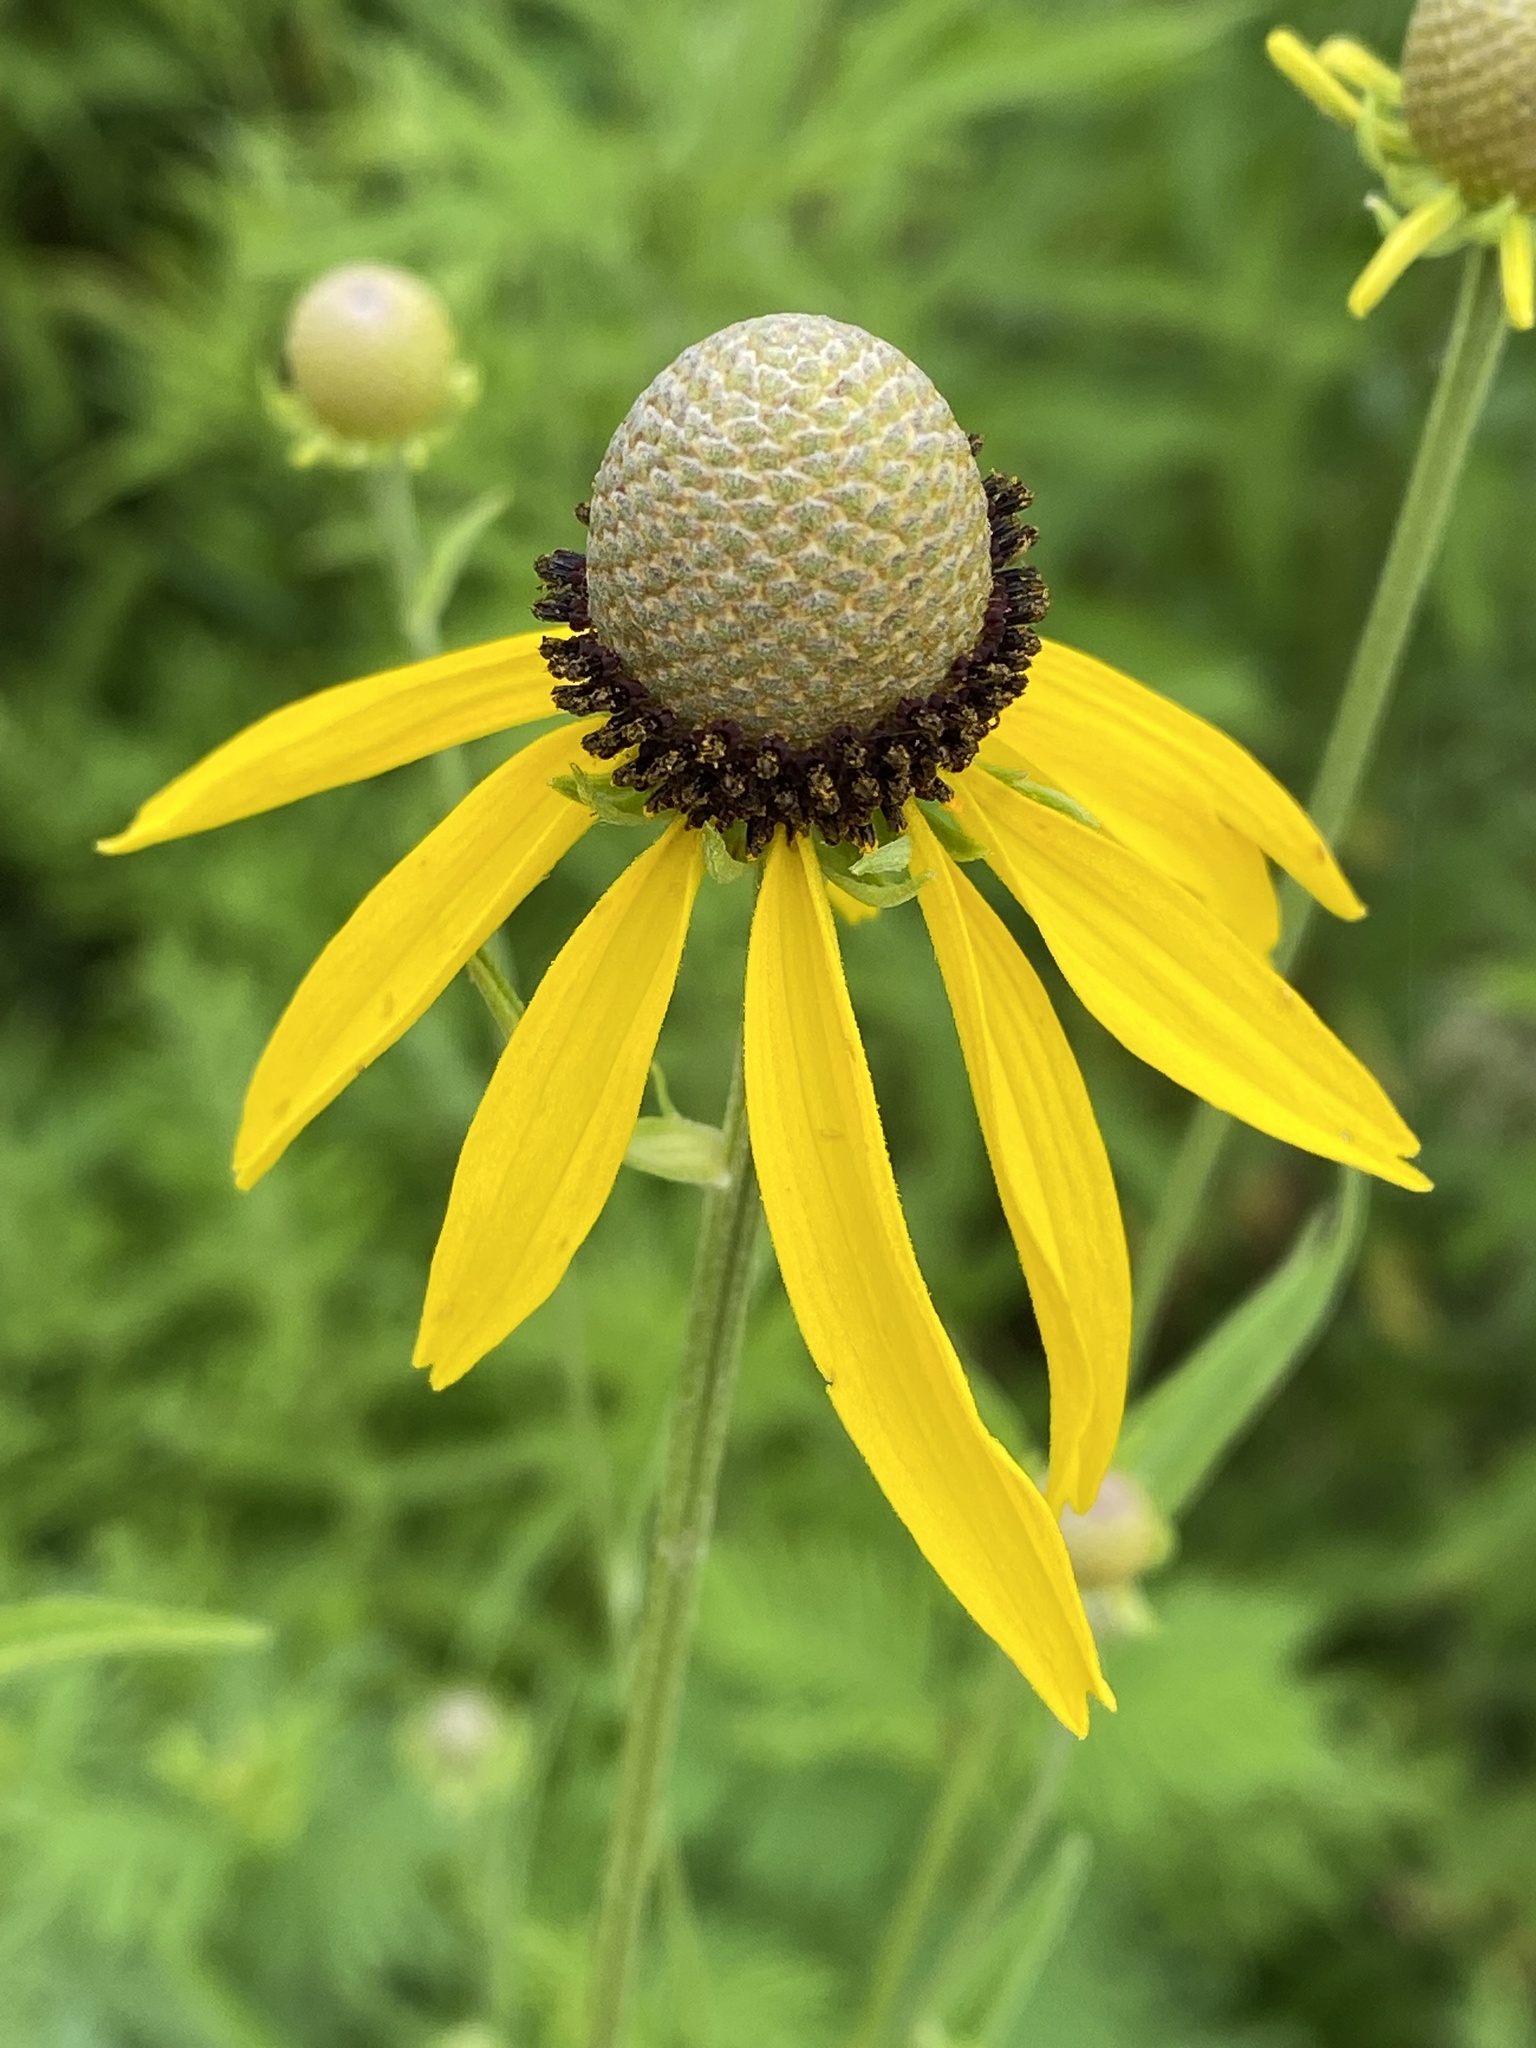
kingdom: Plantae
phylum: Tracheophyta
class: Magnoliopsida
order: Asterales
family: Asteraceae
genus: Ratibida
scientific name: Ratibida pinnata
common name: Drooping prairie-coneflower
